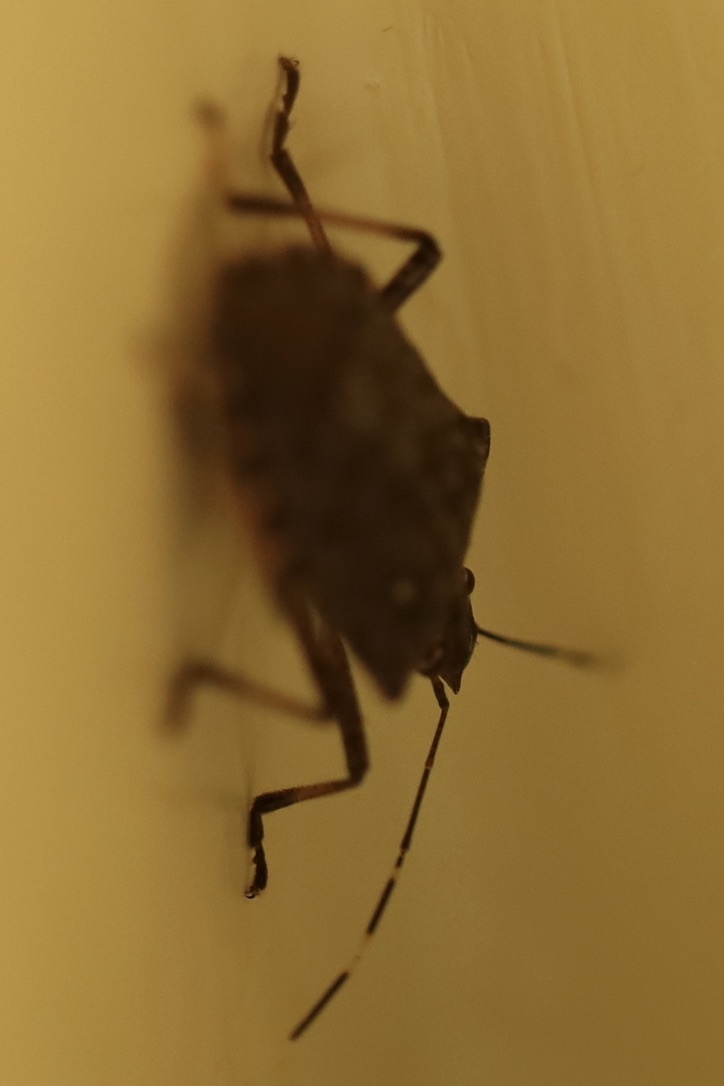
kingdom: Animalia
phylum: Arthropoda
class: Insecta
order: Hemiptera
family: Pentatomidae
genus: Halyomorpha
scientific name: Halyomorpha halys
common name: Brown marmorated stink bug
